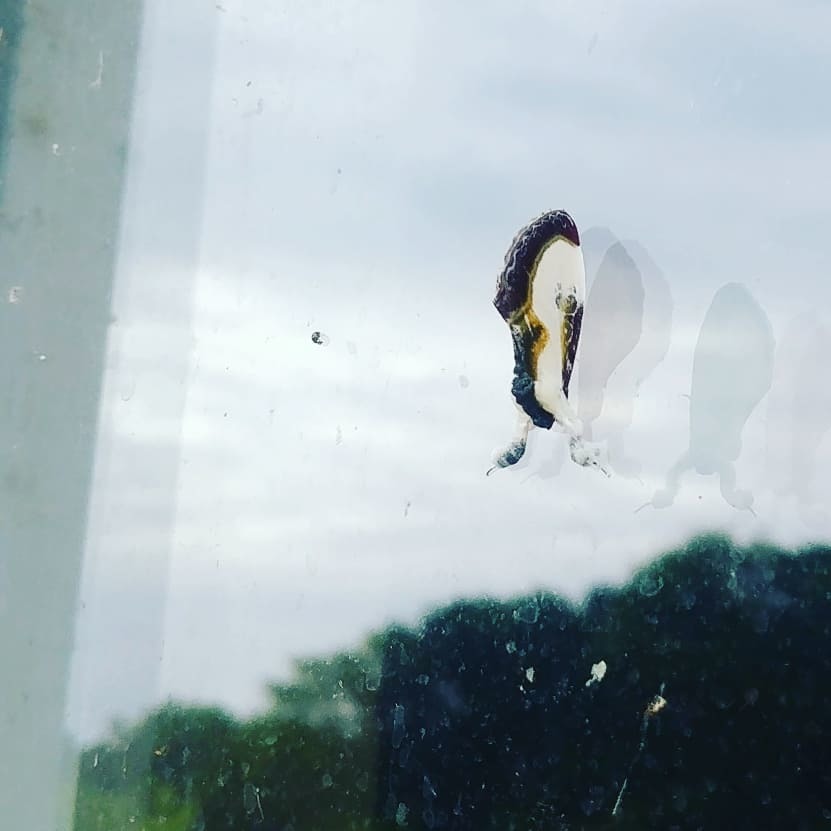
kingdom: Animalia
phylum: Arthropoda
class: Insecta
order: Lepidoptera
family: Noctuidae
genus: Eudryas
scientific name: Eudryas grata
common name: Beautiful wood-nymph
